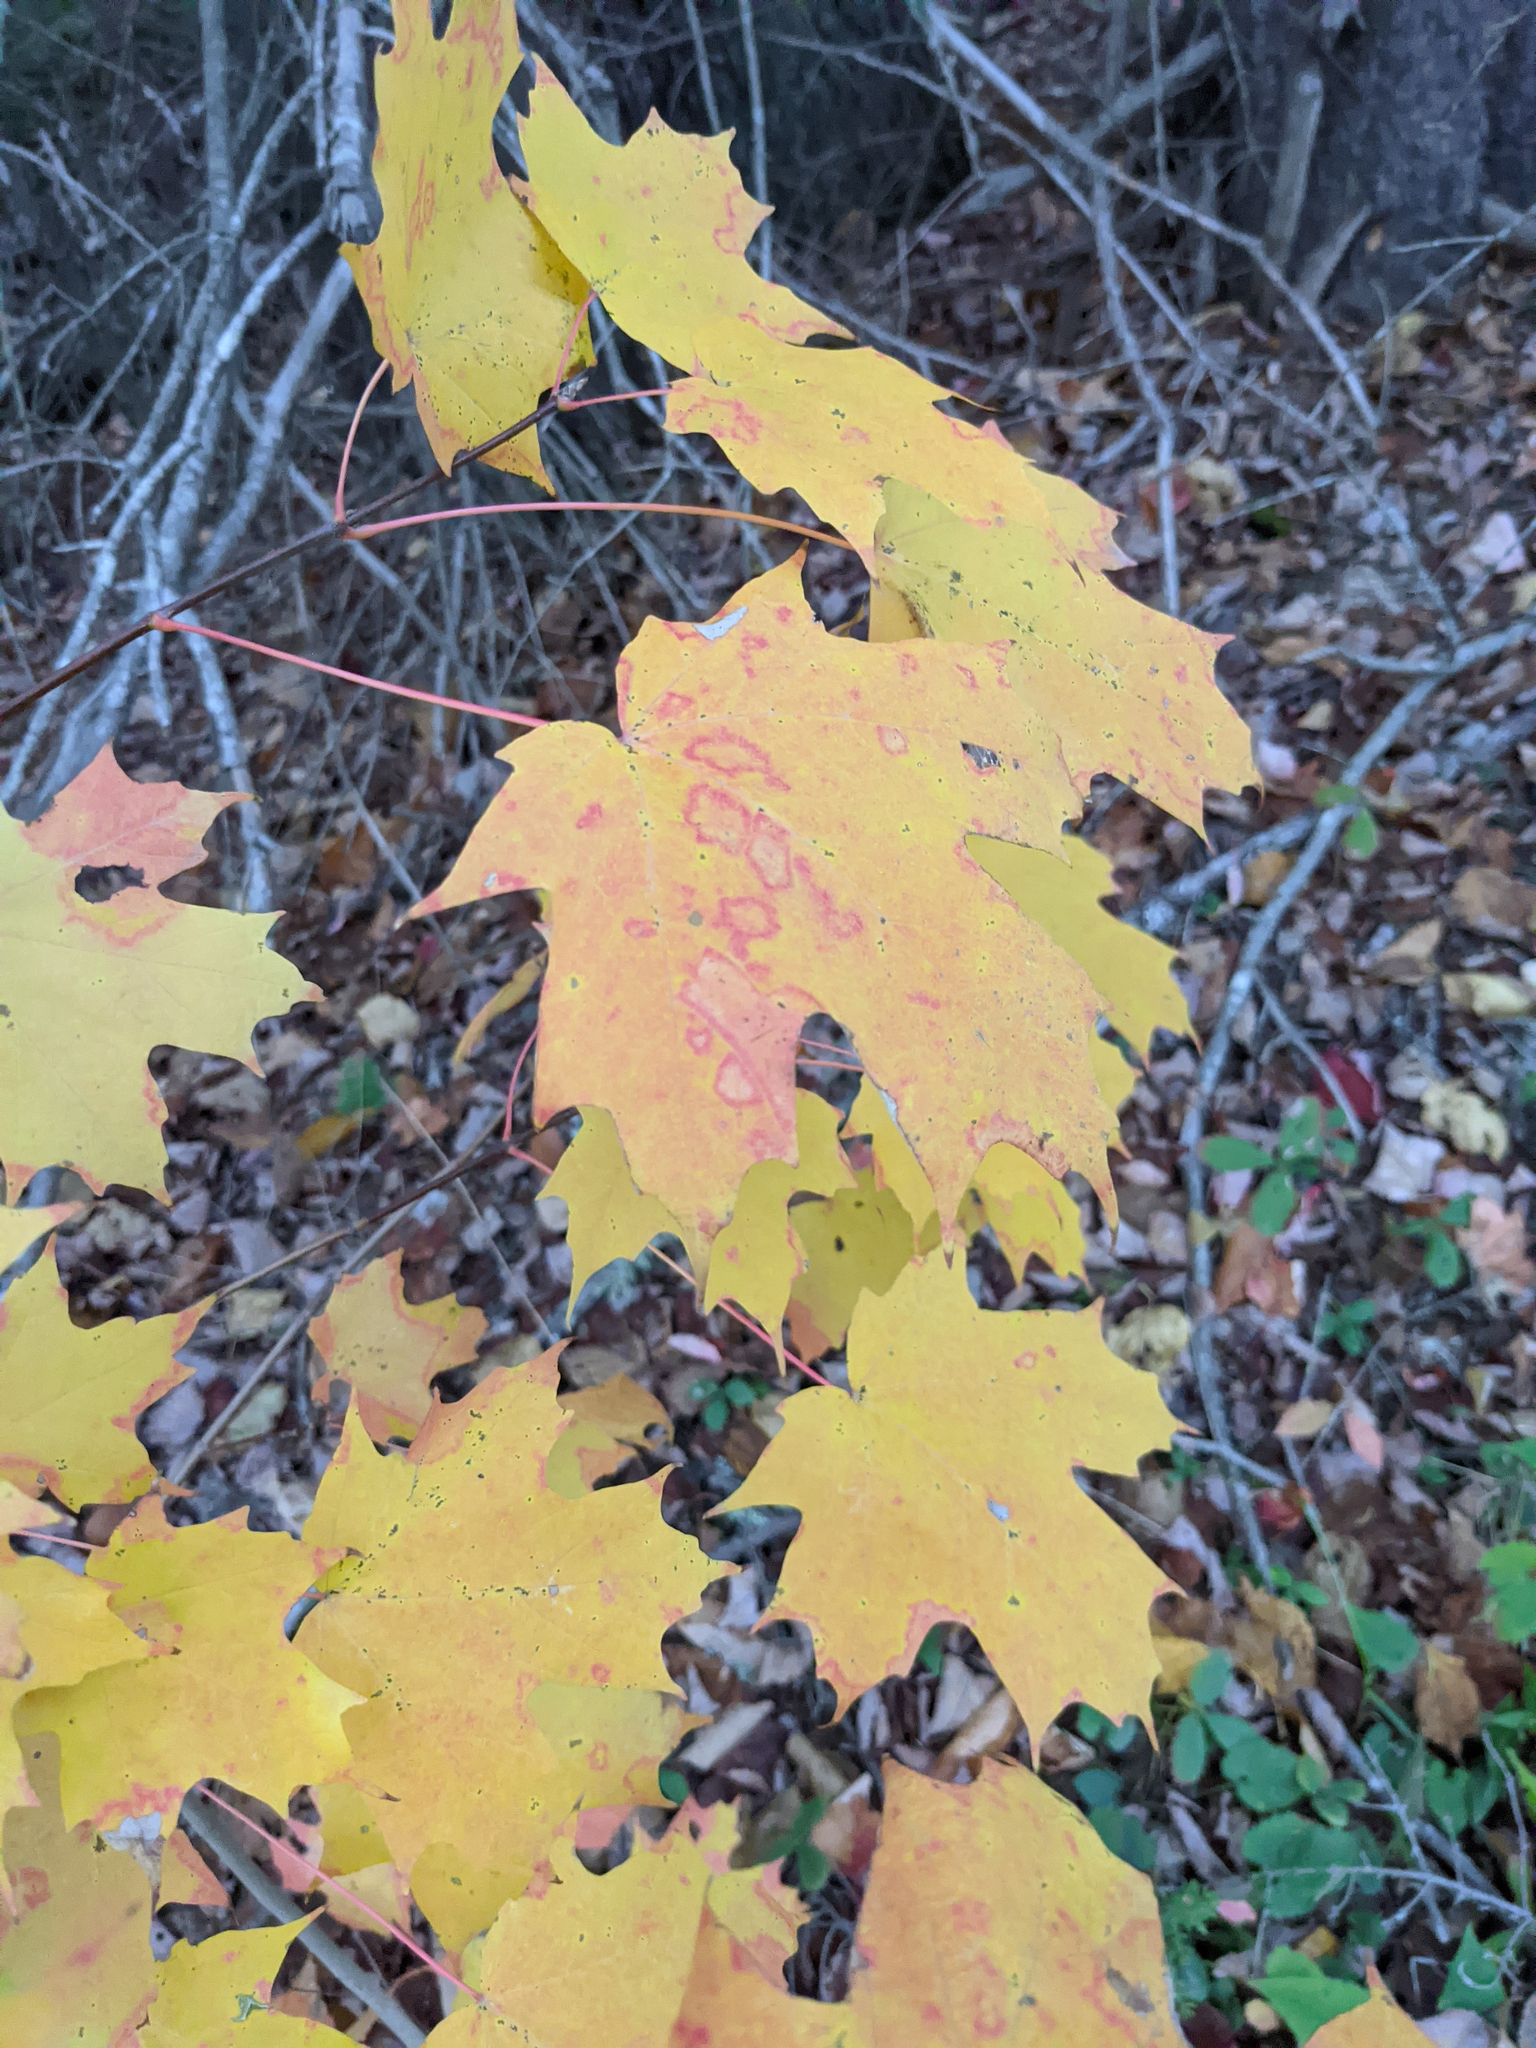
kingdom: Plantae
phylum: Tracheophyta
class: Magnoliopsida
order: Sapindales
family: Sapindaceae
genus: Acer
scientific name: Acer saccharum
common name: Sugar maple
